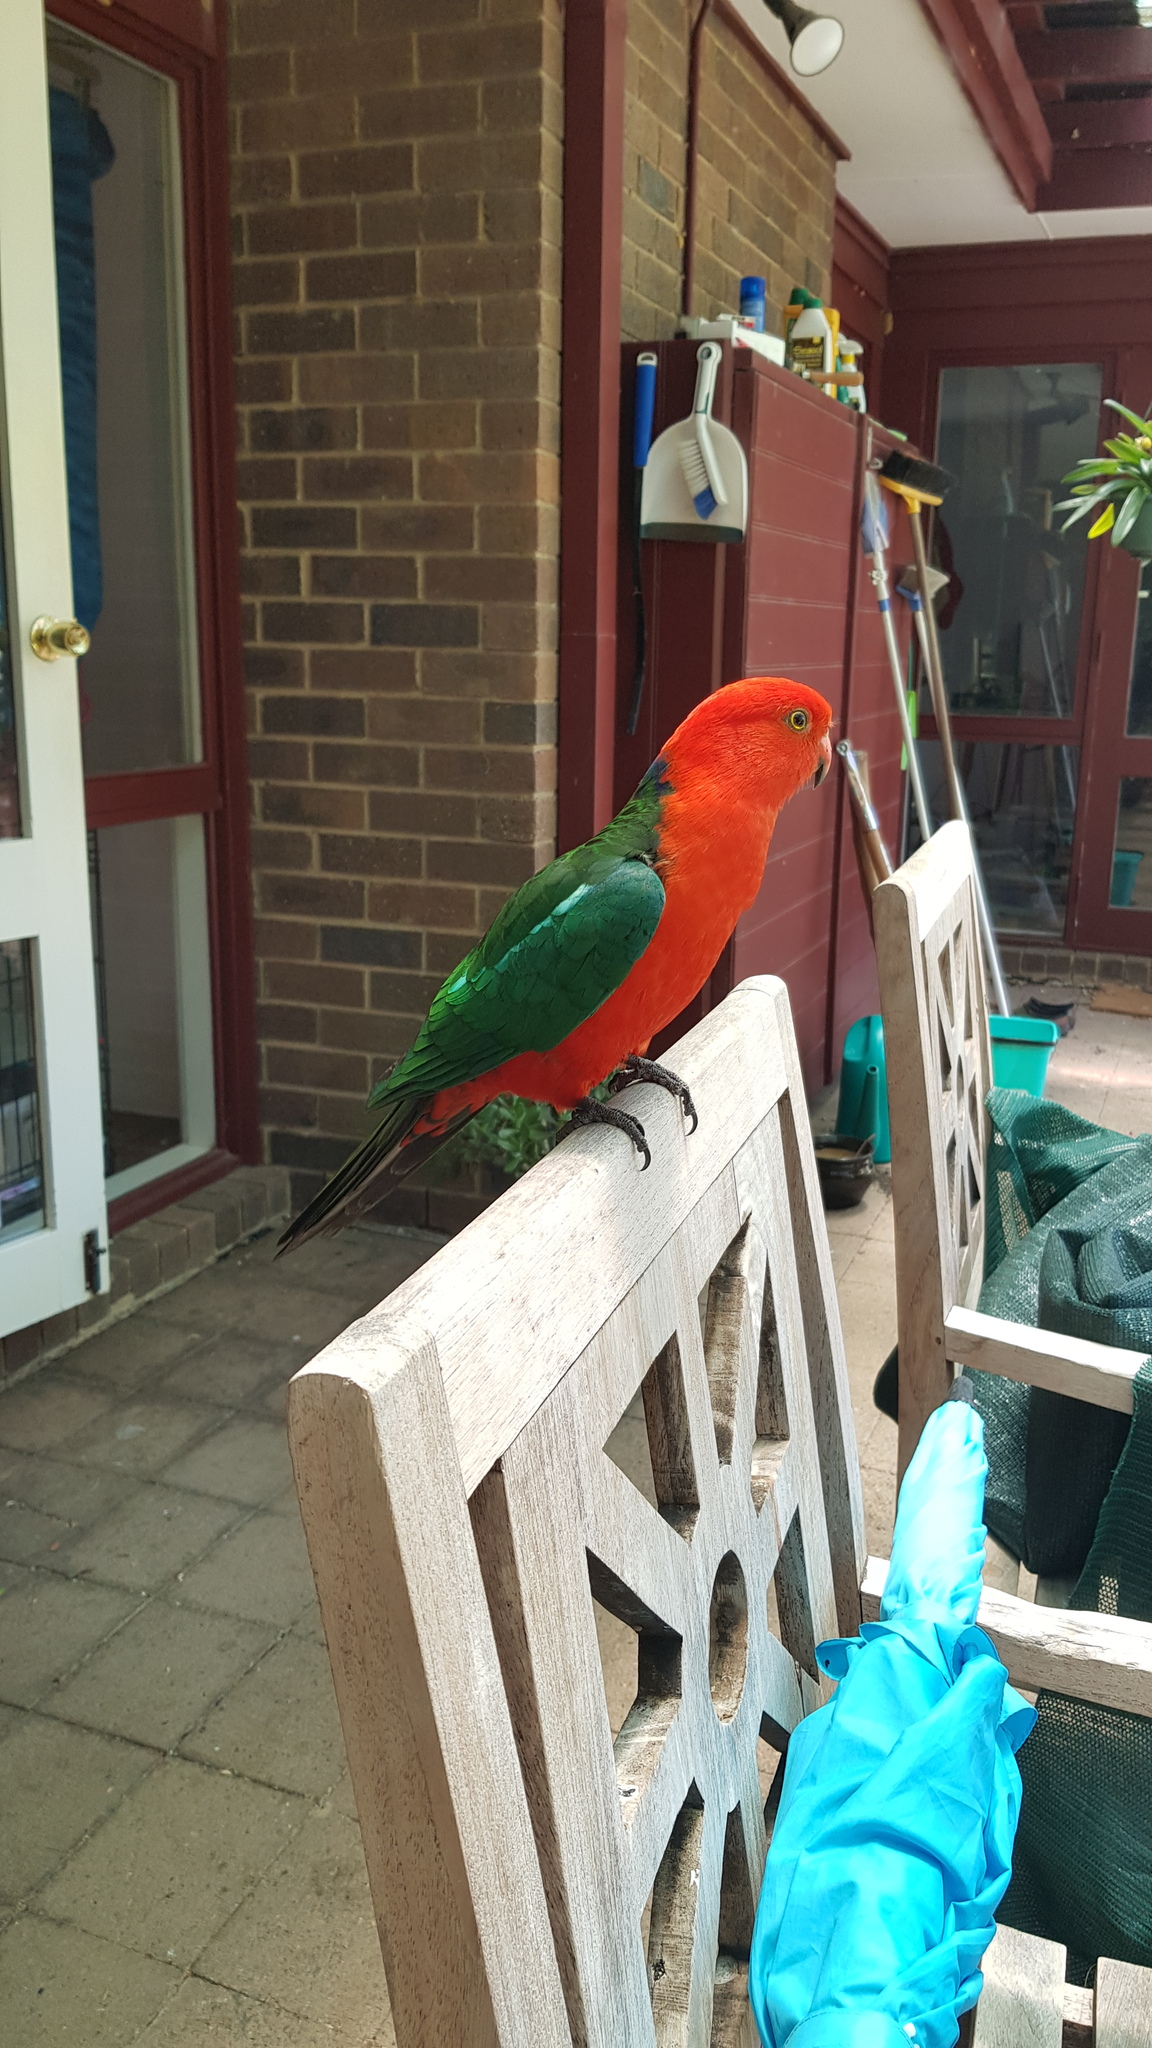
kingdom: Animalia
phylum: Chordata
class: Aves
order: Psittaciformes
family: Psittacidae
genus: Alisterus
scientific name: Alisterus scapularis
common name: Australian king parrot
